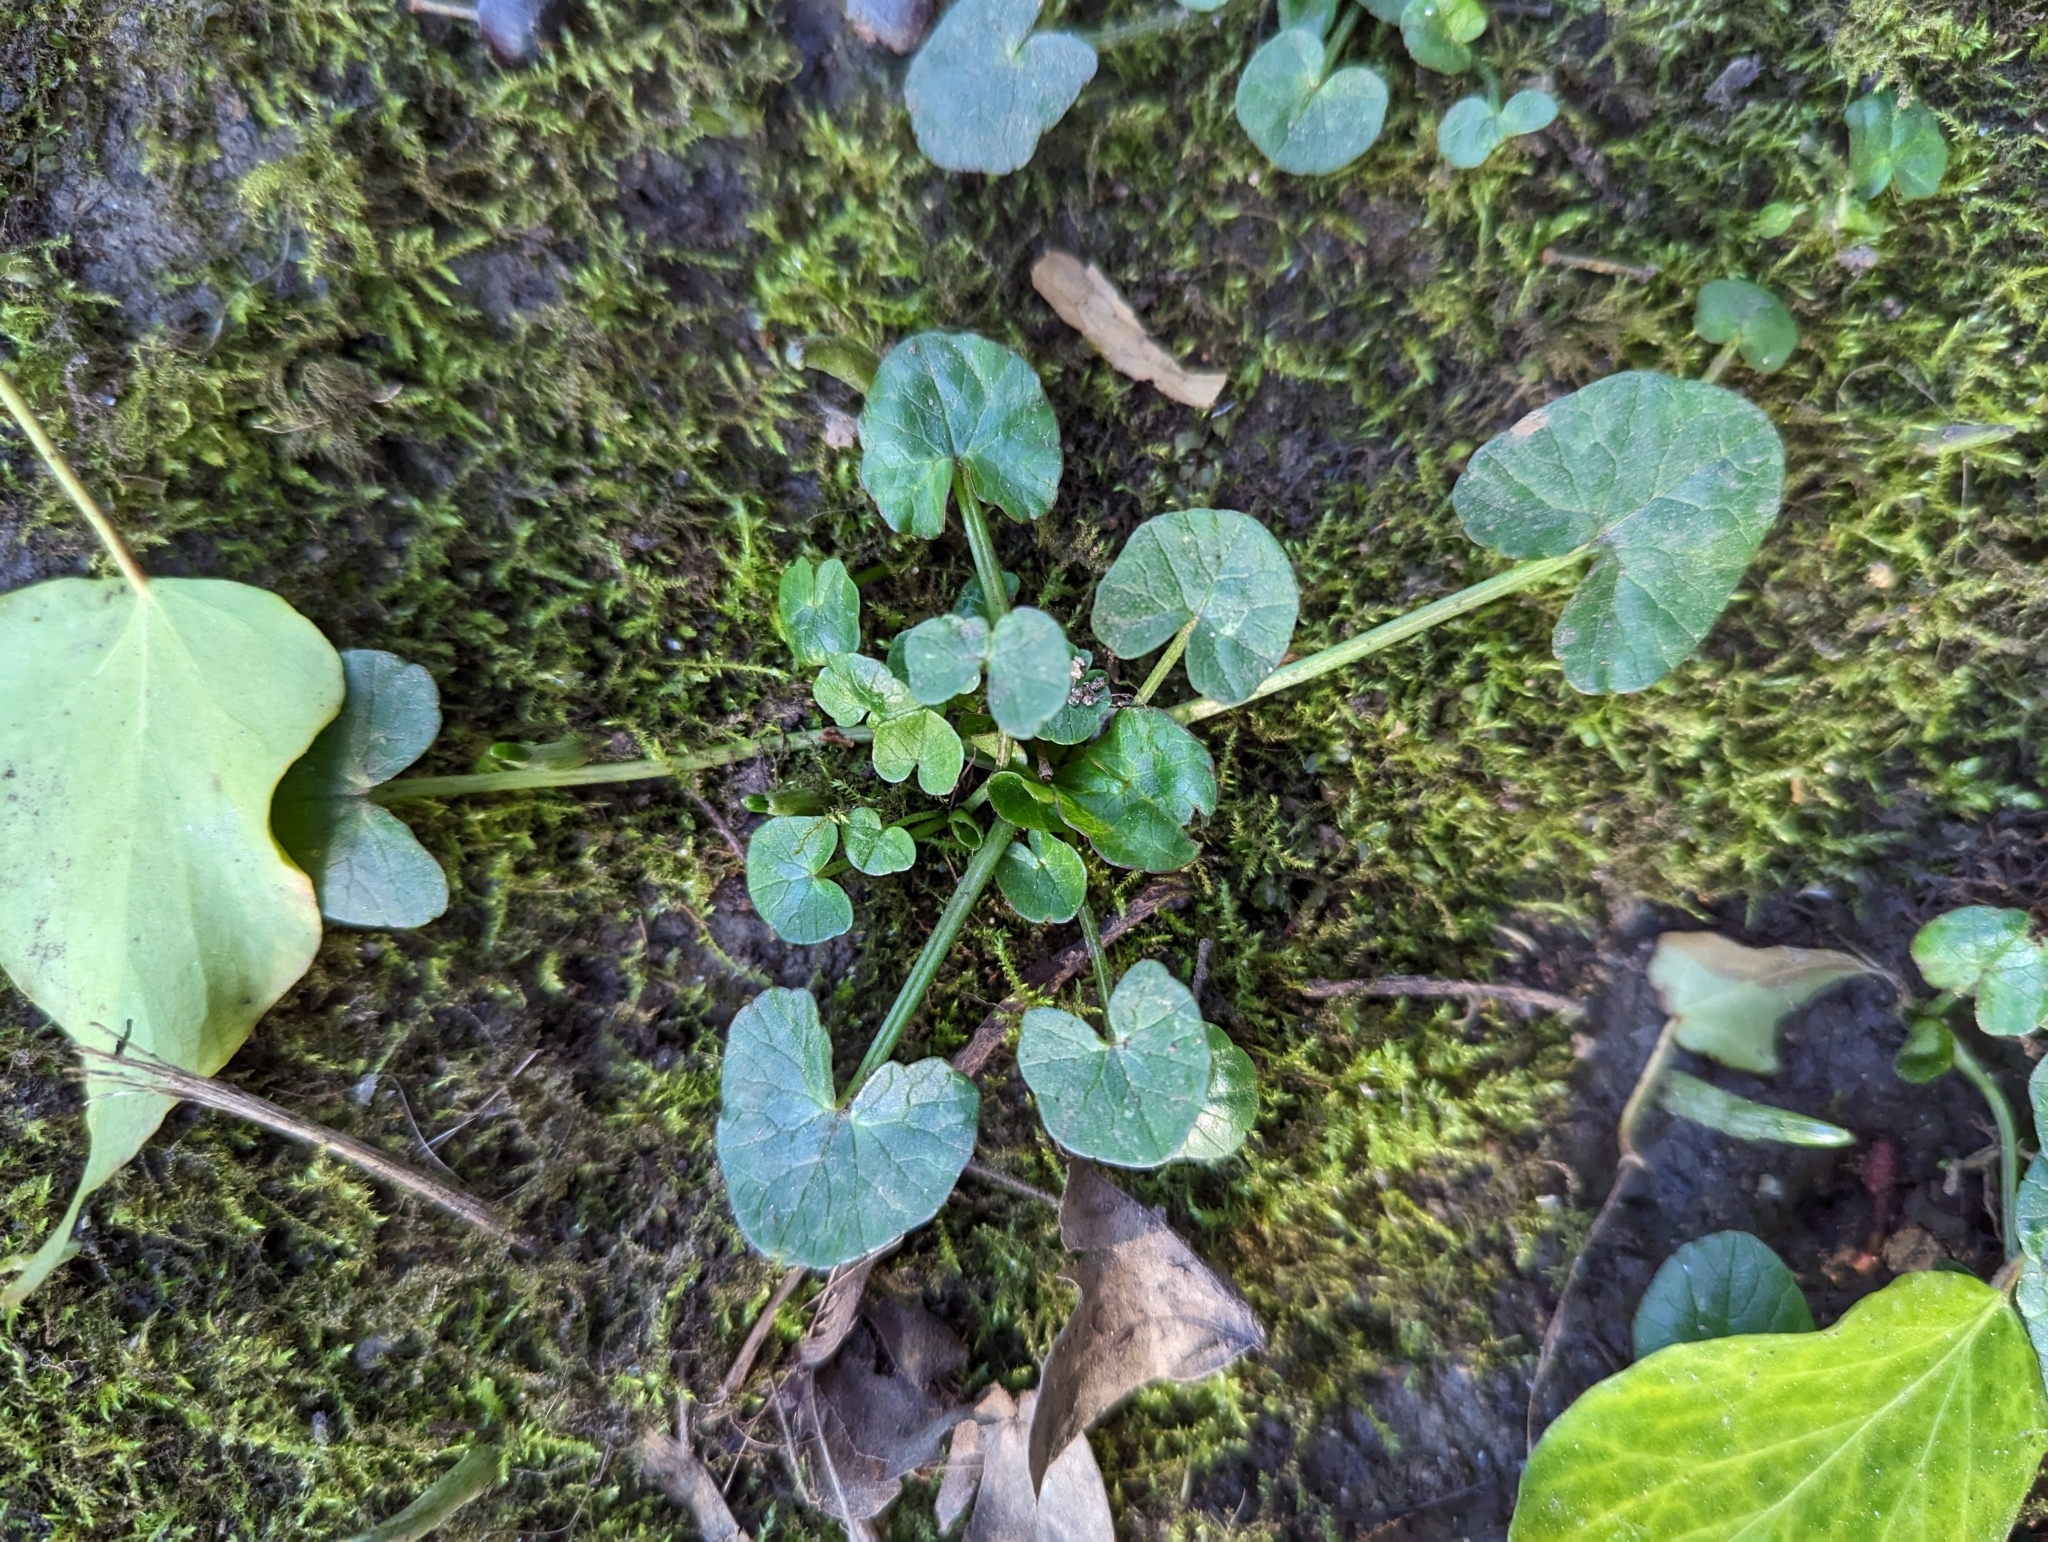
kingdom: Plantae
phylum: Tracheophyta
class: Magnoliopsida
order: Ranunculales
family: Ranunculaceae
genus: Ficaria
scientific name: Ficaria verna
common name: Lesser celandine
